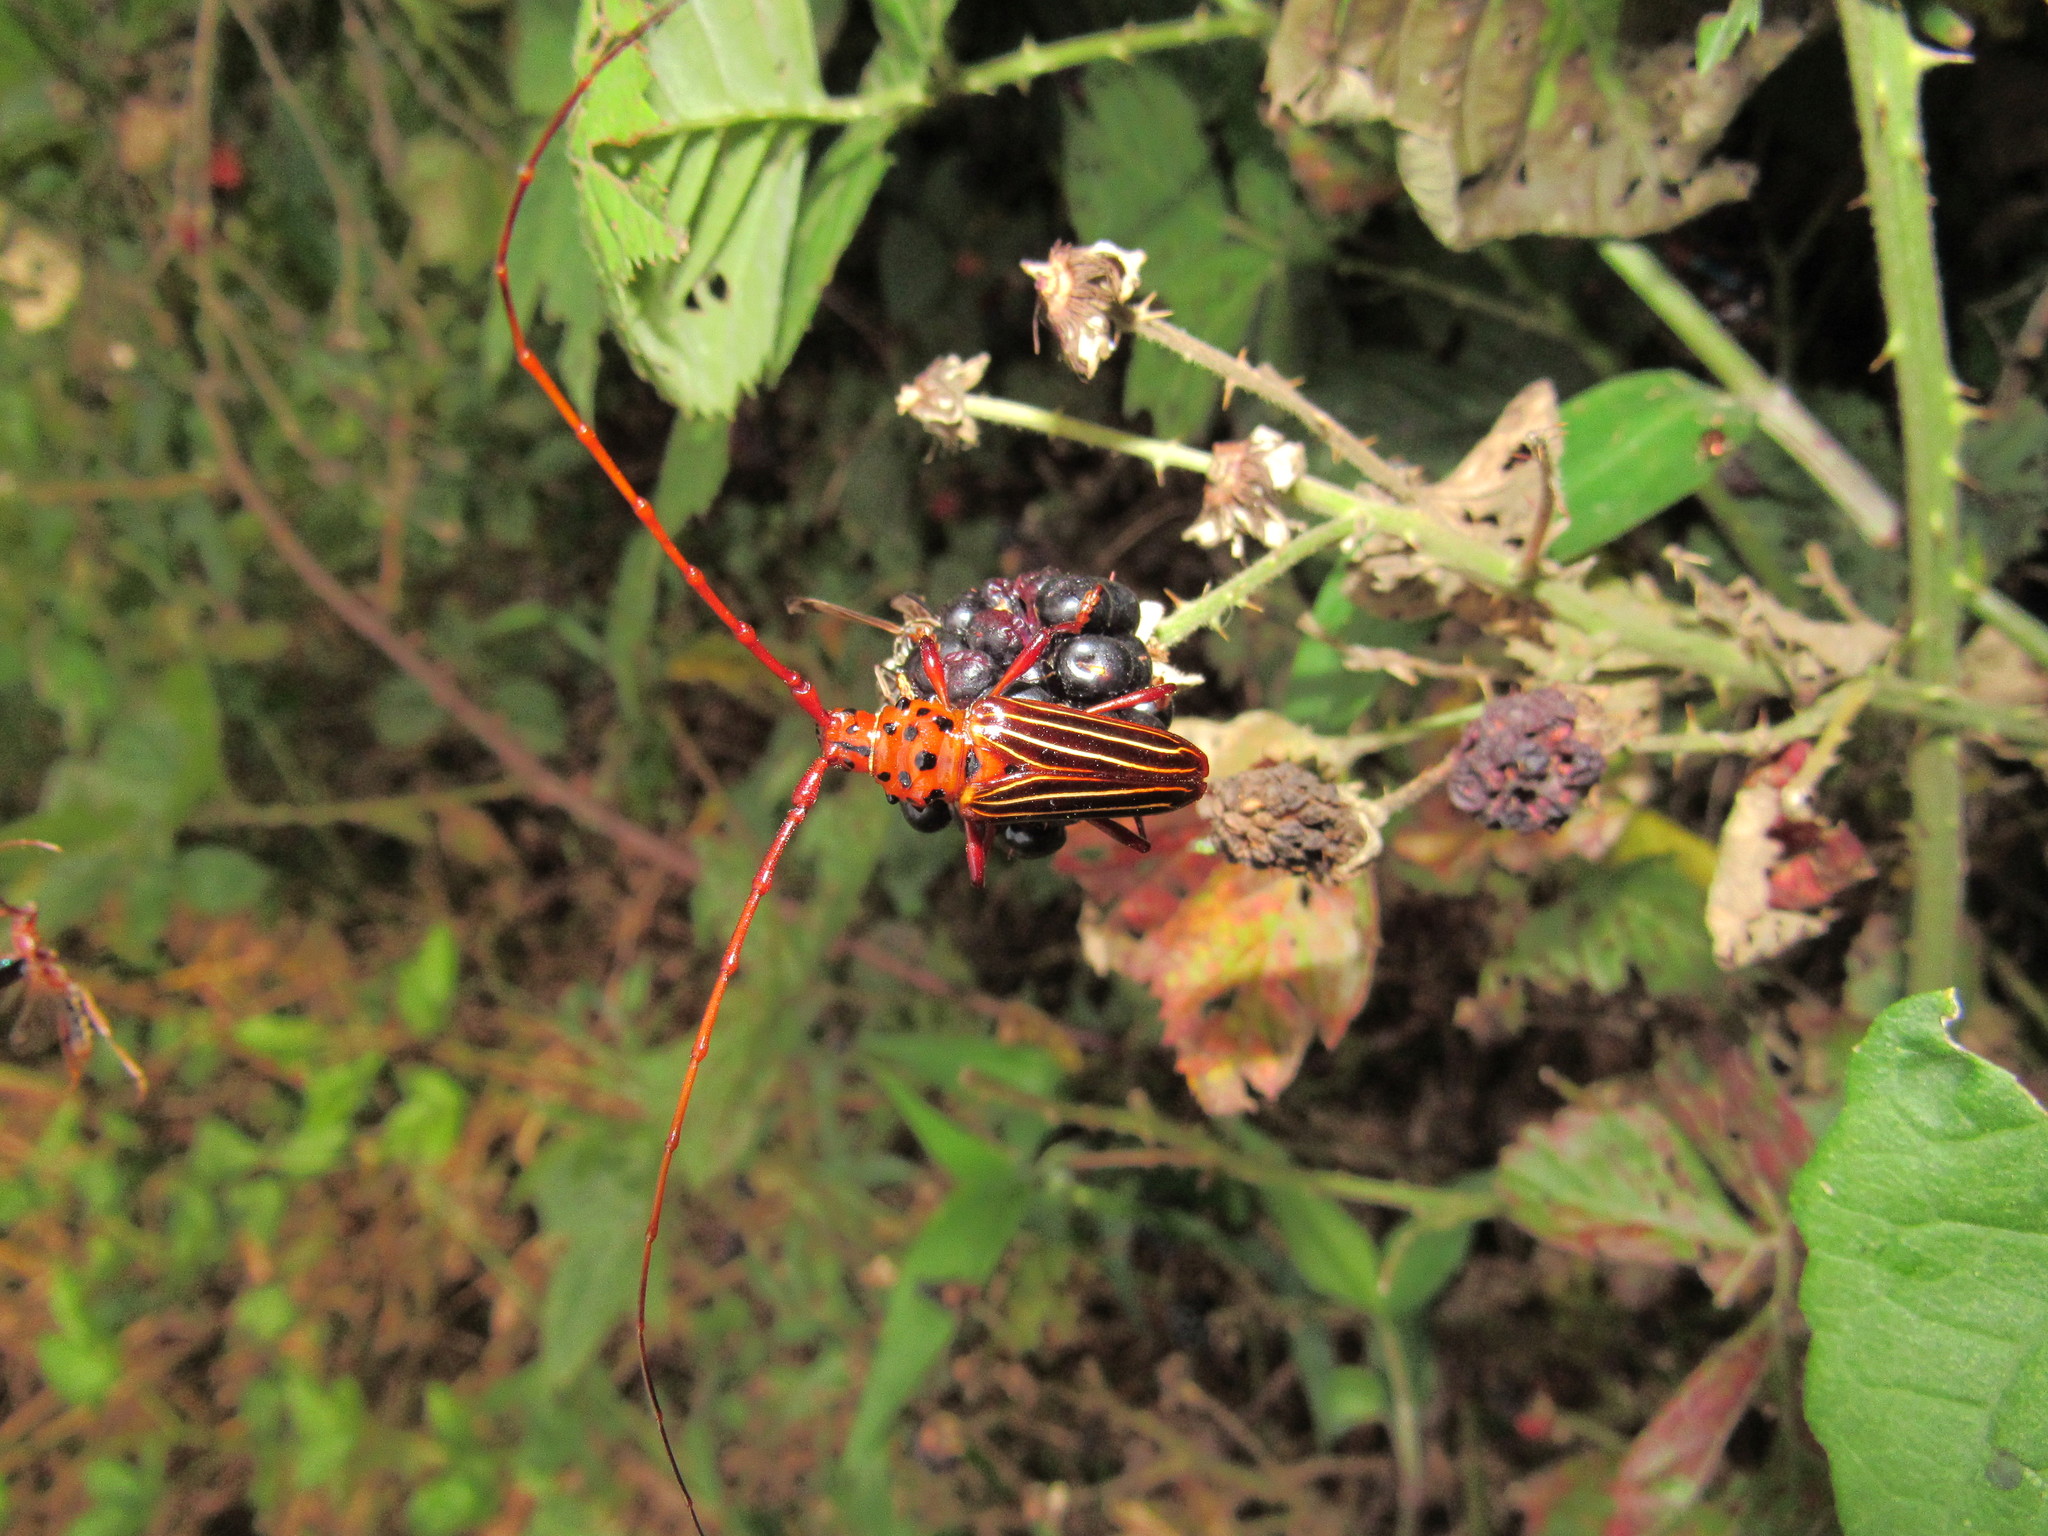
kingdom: Animalia
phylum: Arthropoda
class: Insecta
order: Coleoptera
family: Cerambycidae
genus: Chydarteres
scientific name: Chydarteres striatus
